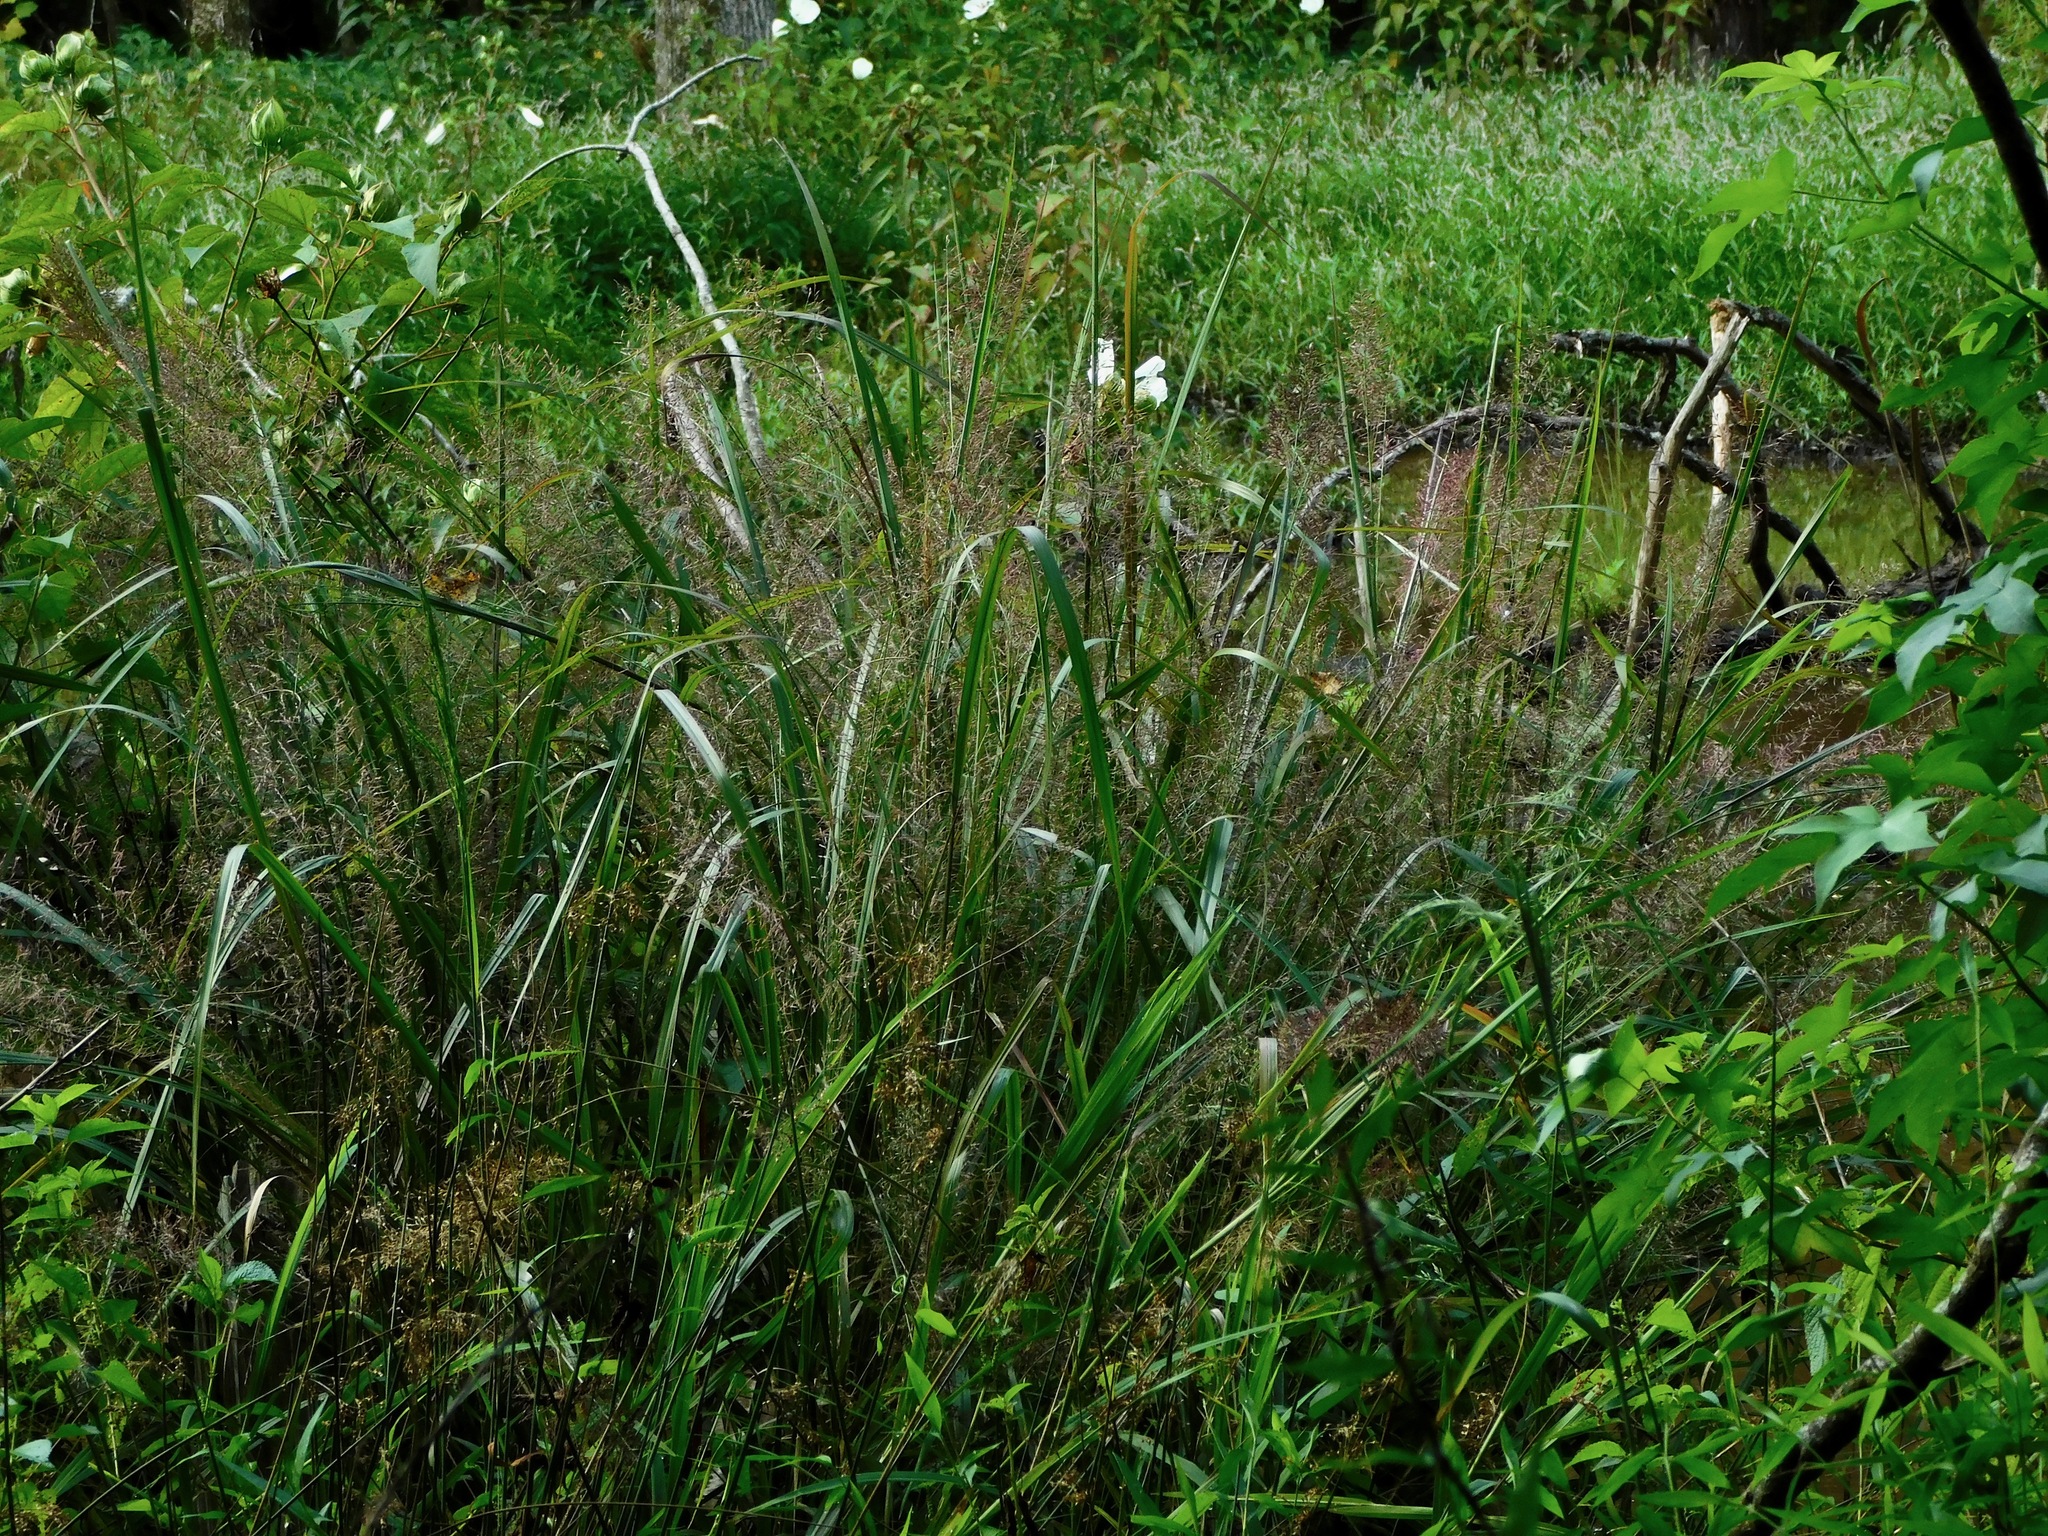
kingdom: Plantae
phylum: Tracheophyta
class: Liliopsida
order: Poales
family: Poaceae
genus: Coleataenia
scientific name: Coleataenia rigidula
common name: Redtop panicgrass
